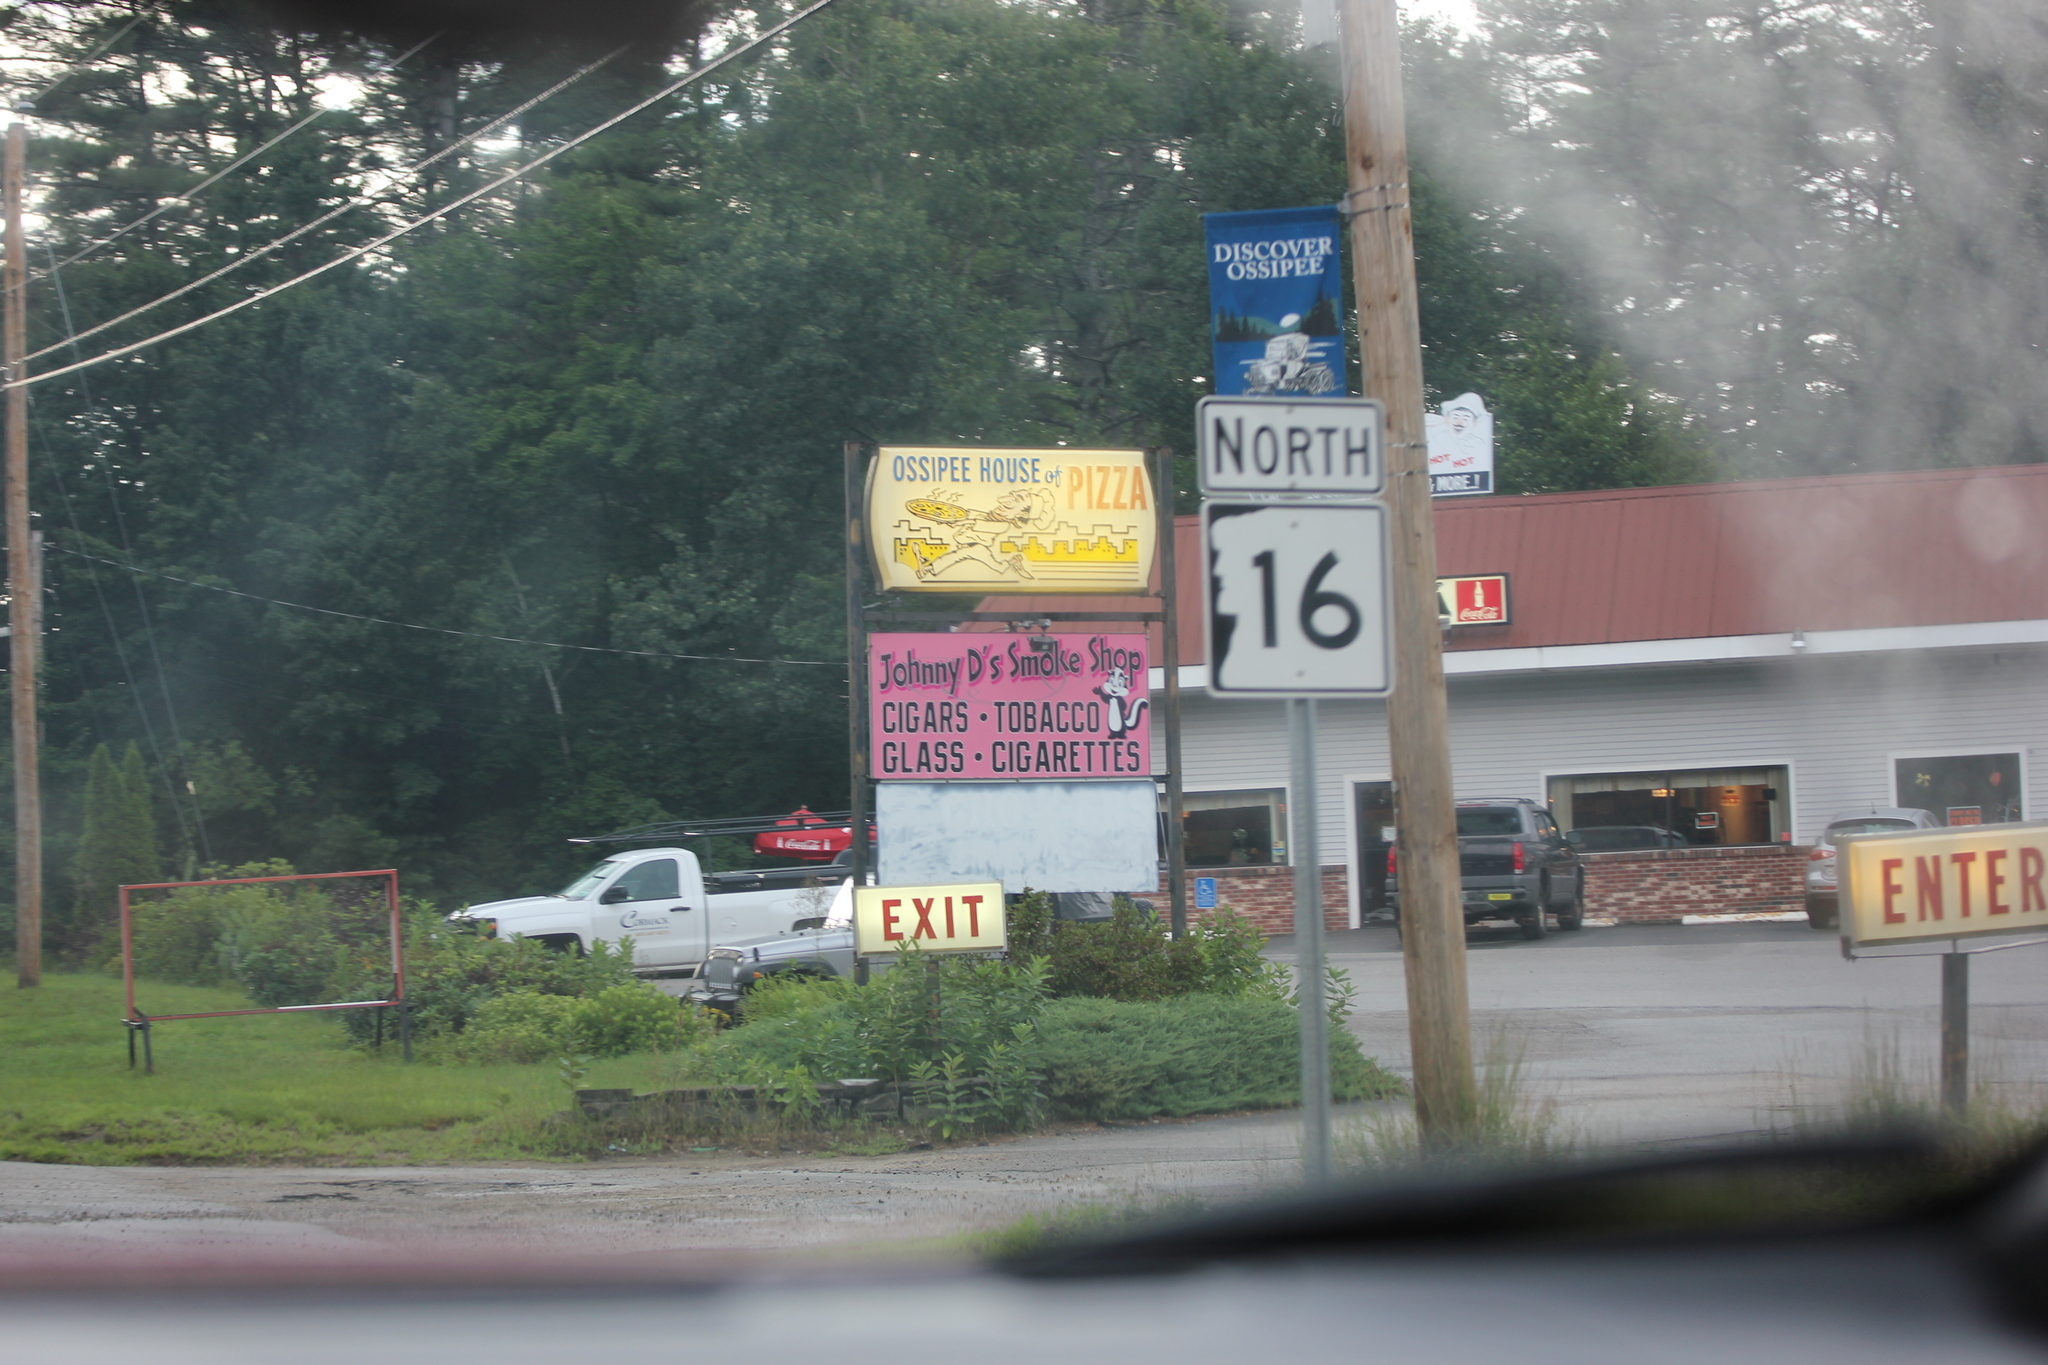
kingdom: Plantae
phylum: Tracheophyta
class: Magnoliopsida
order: Gentianales
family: Apocynaceae
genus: Asclepias
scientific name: Asclepias syriaca
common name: Common milkweed
